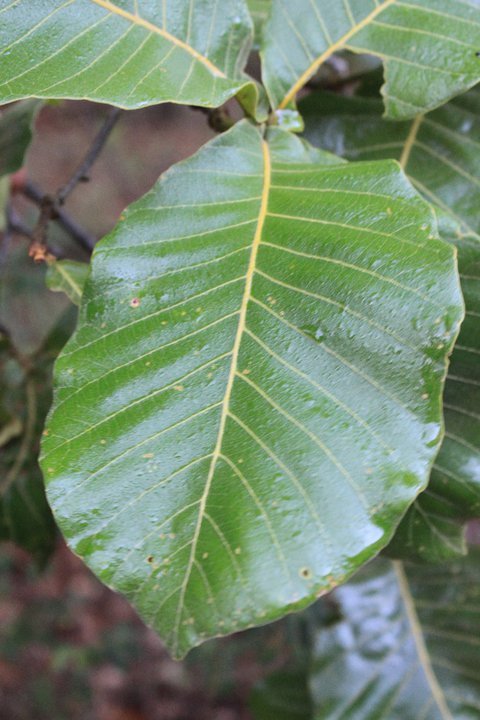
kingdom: Plantae
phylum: Tracheophyta
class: Magnoliopsida
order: Fagales
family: Fagaceae
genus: Quercus
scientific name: Quercus magnoliifolia
